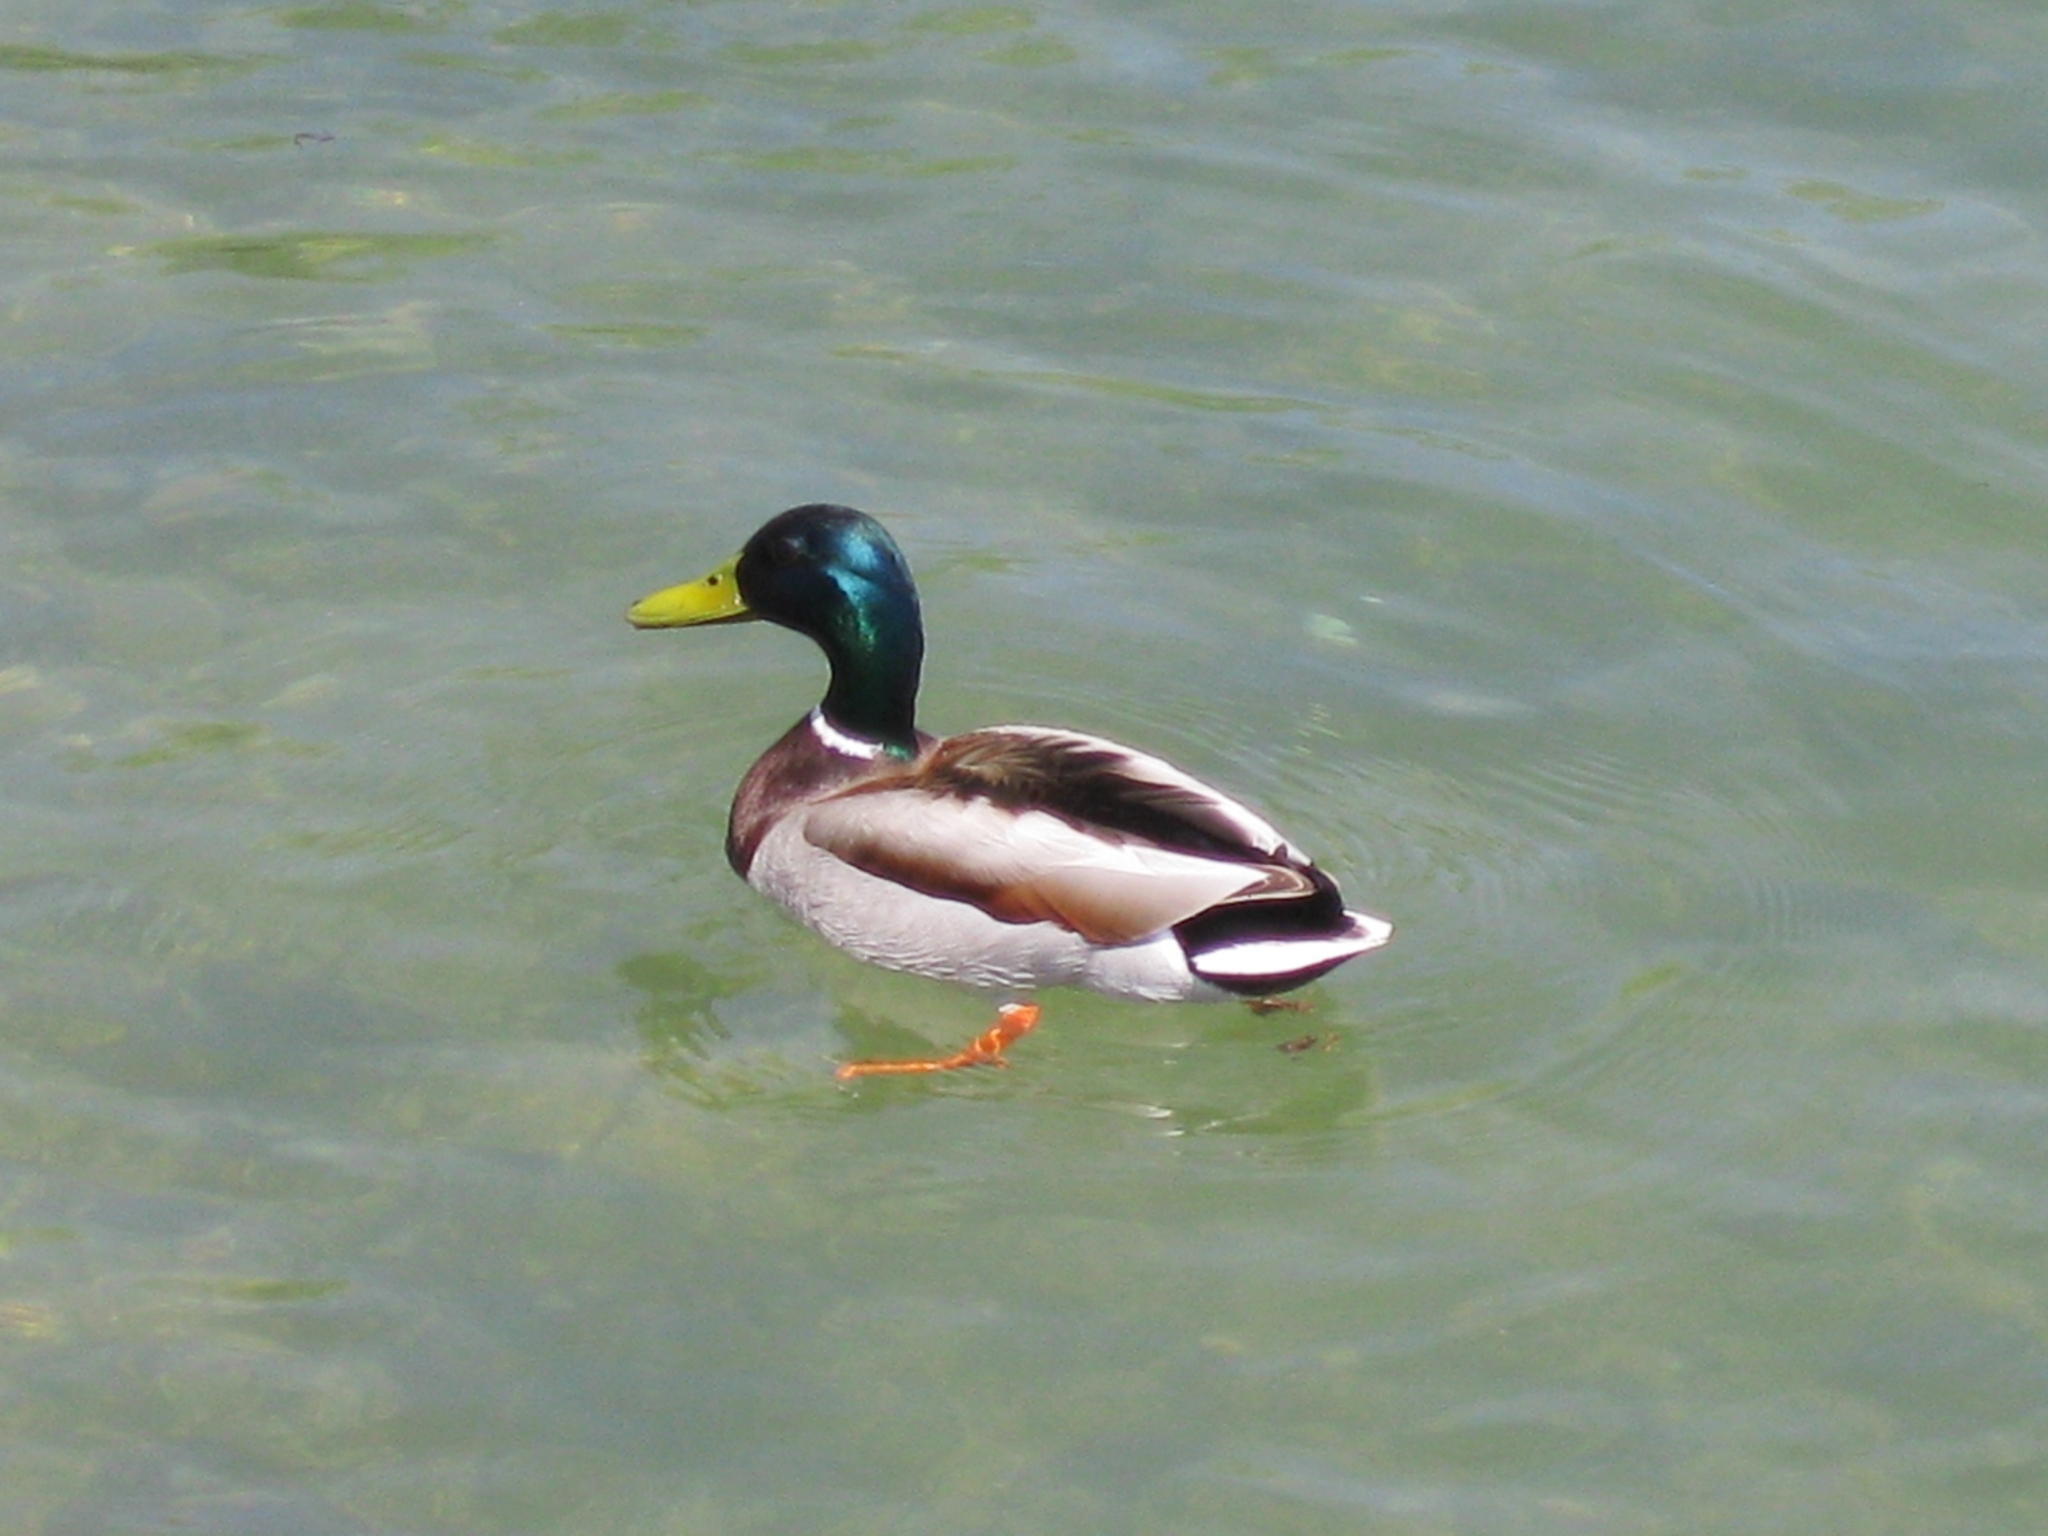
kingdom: Animalia
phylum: Chordata
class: Aves
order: Anseriformes
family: Anatidae
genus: Anas
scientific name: Anas platyrhynchos
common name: Mallard
